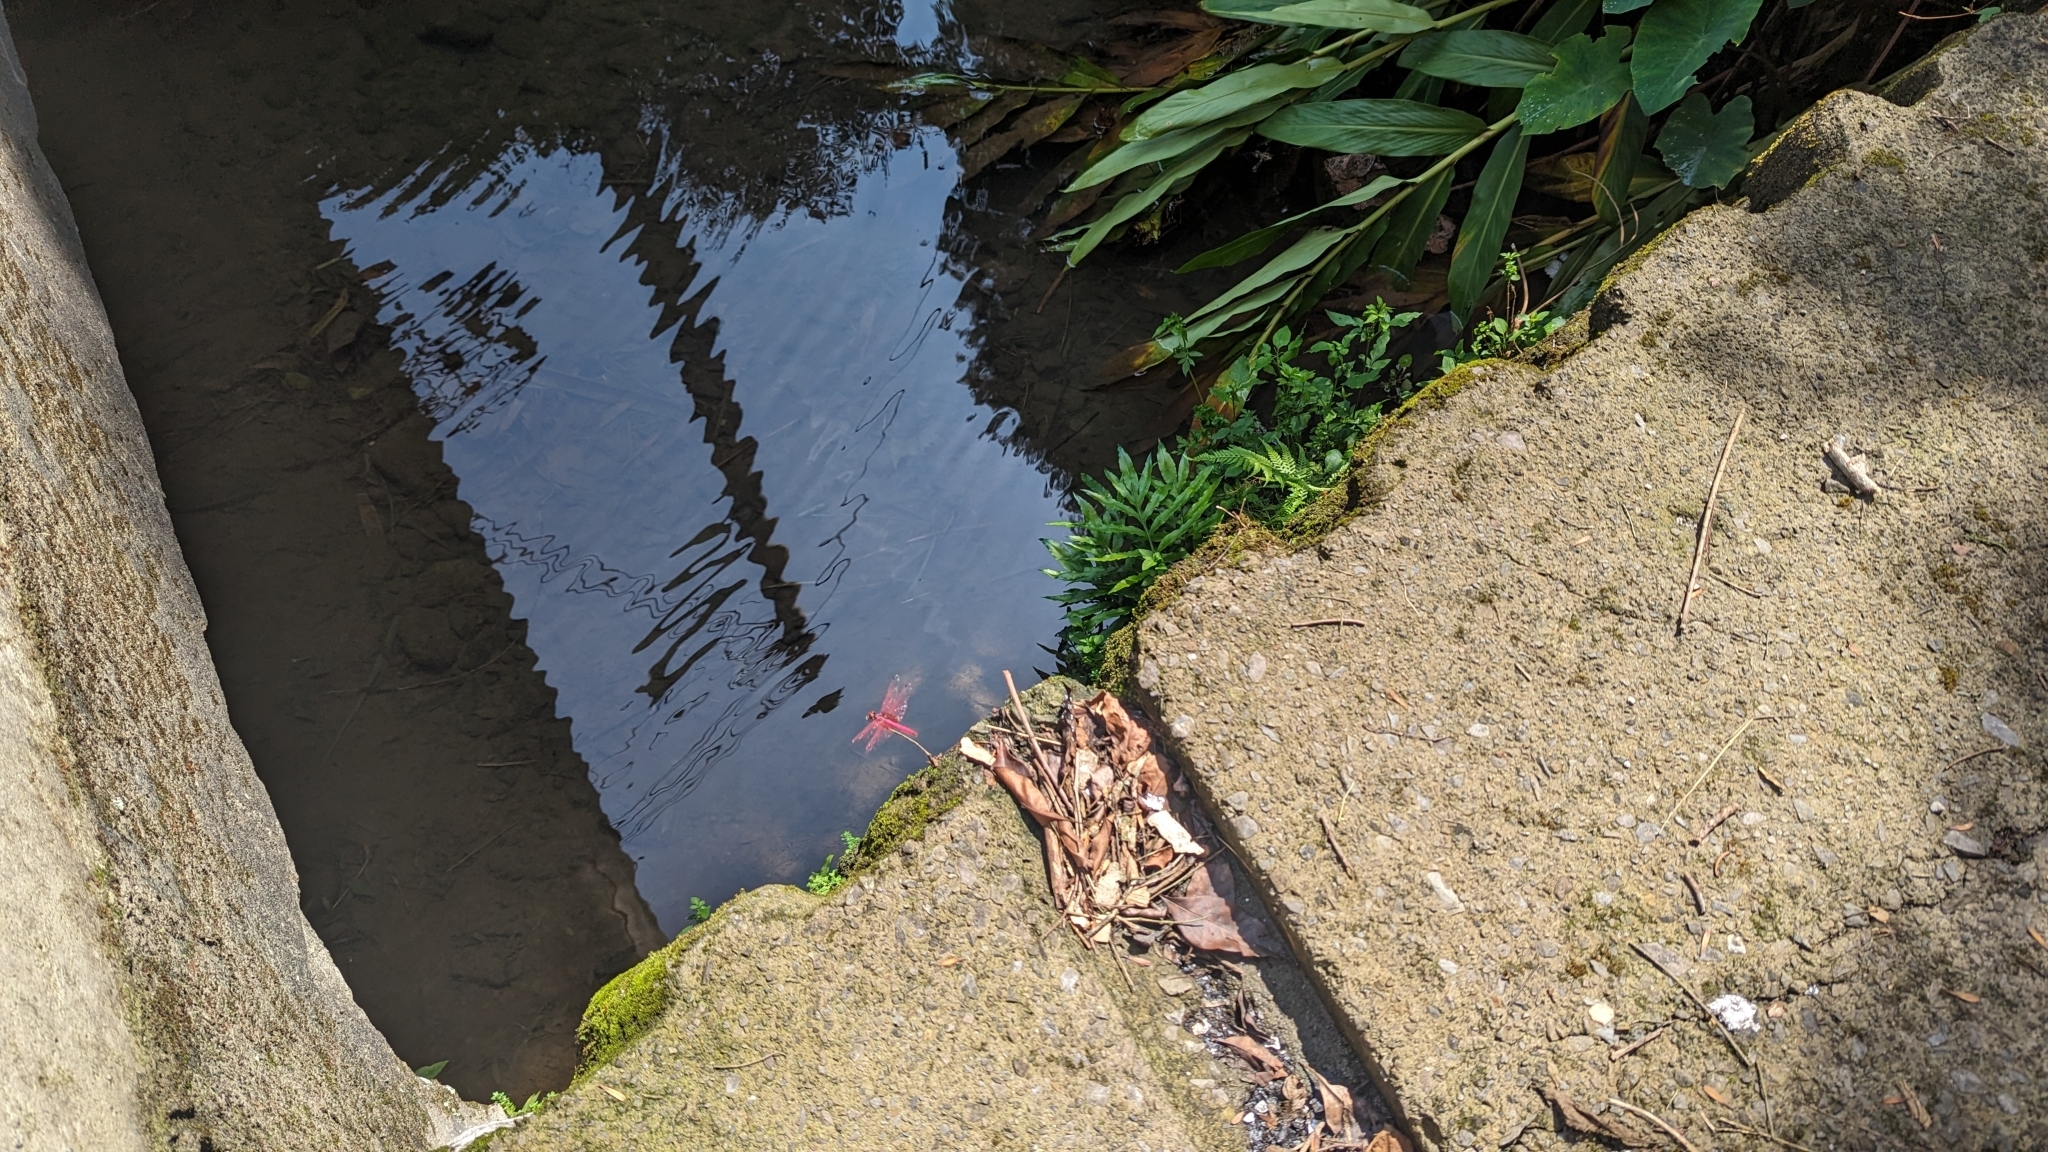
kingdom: Animalia
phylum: Arthropoda
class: Insecta
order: Odonata
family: Libellulidae
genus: Trithemis
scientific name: Trithemis aurora
